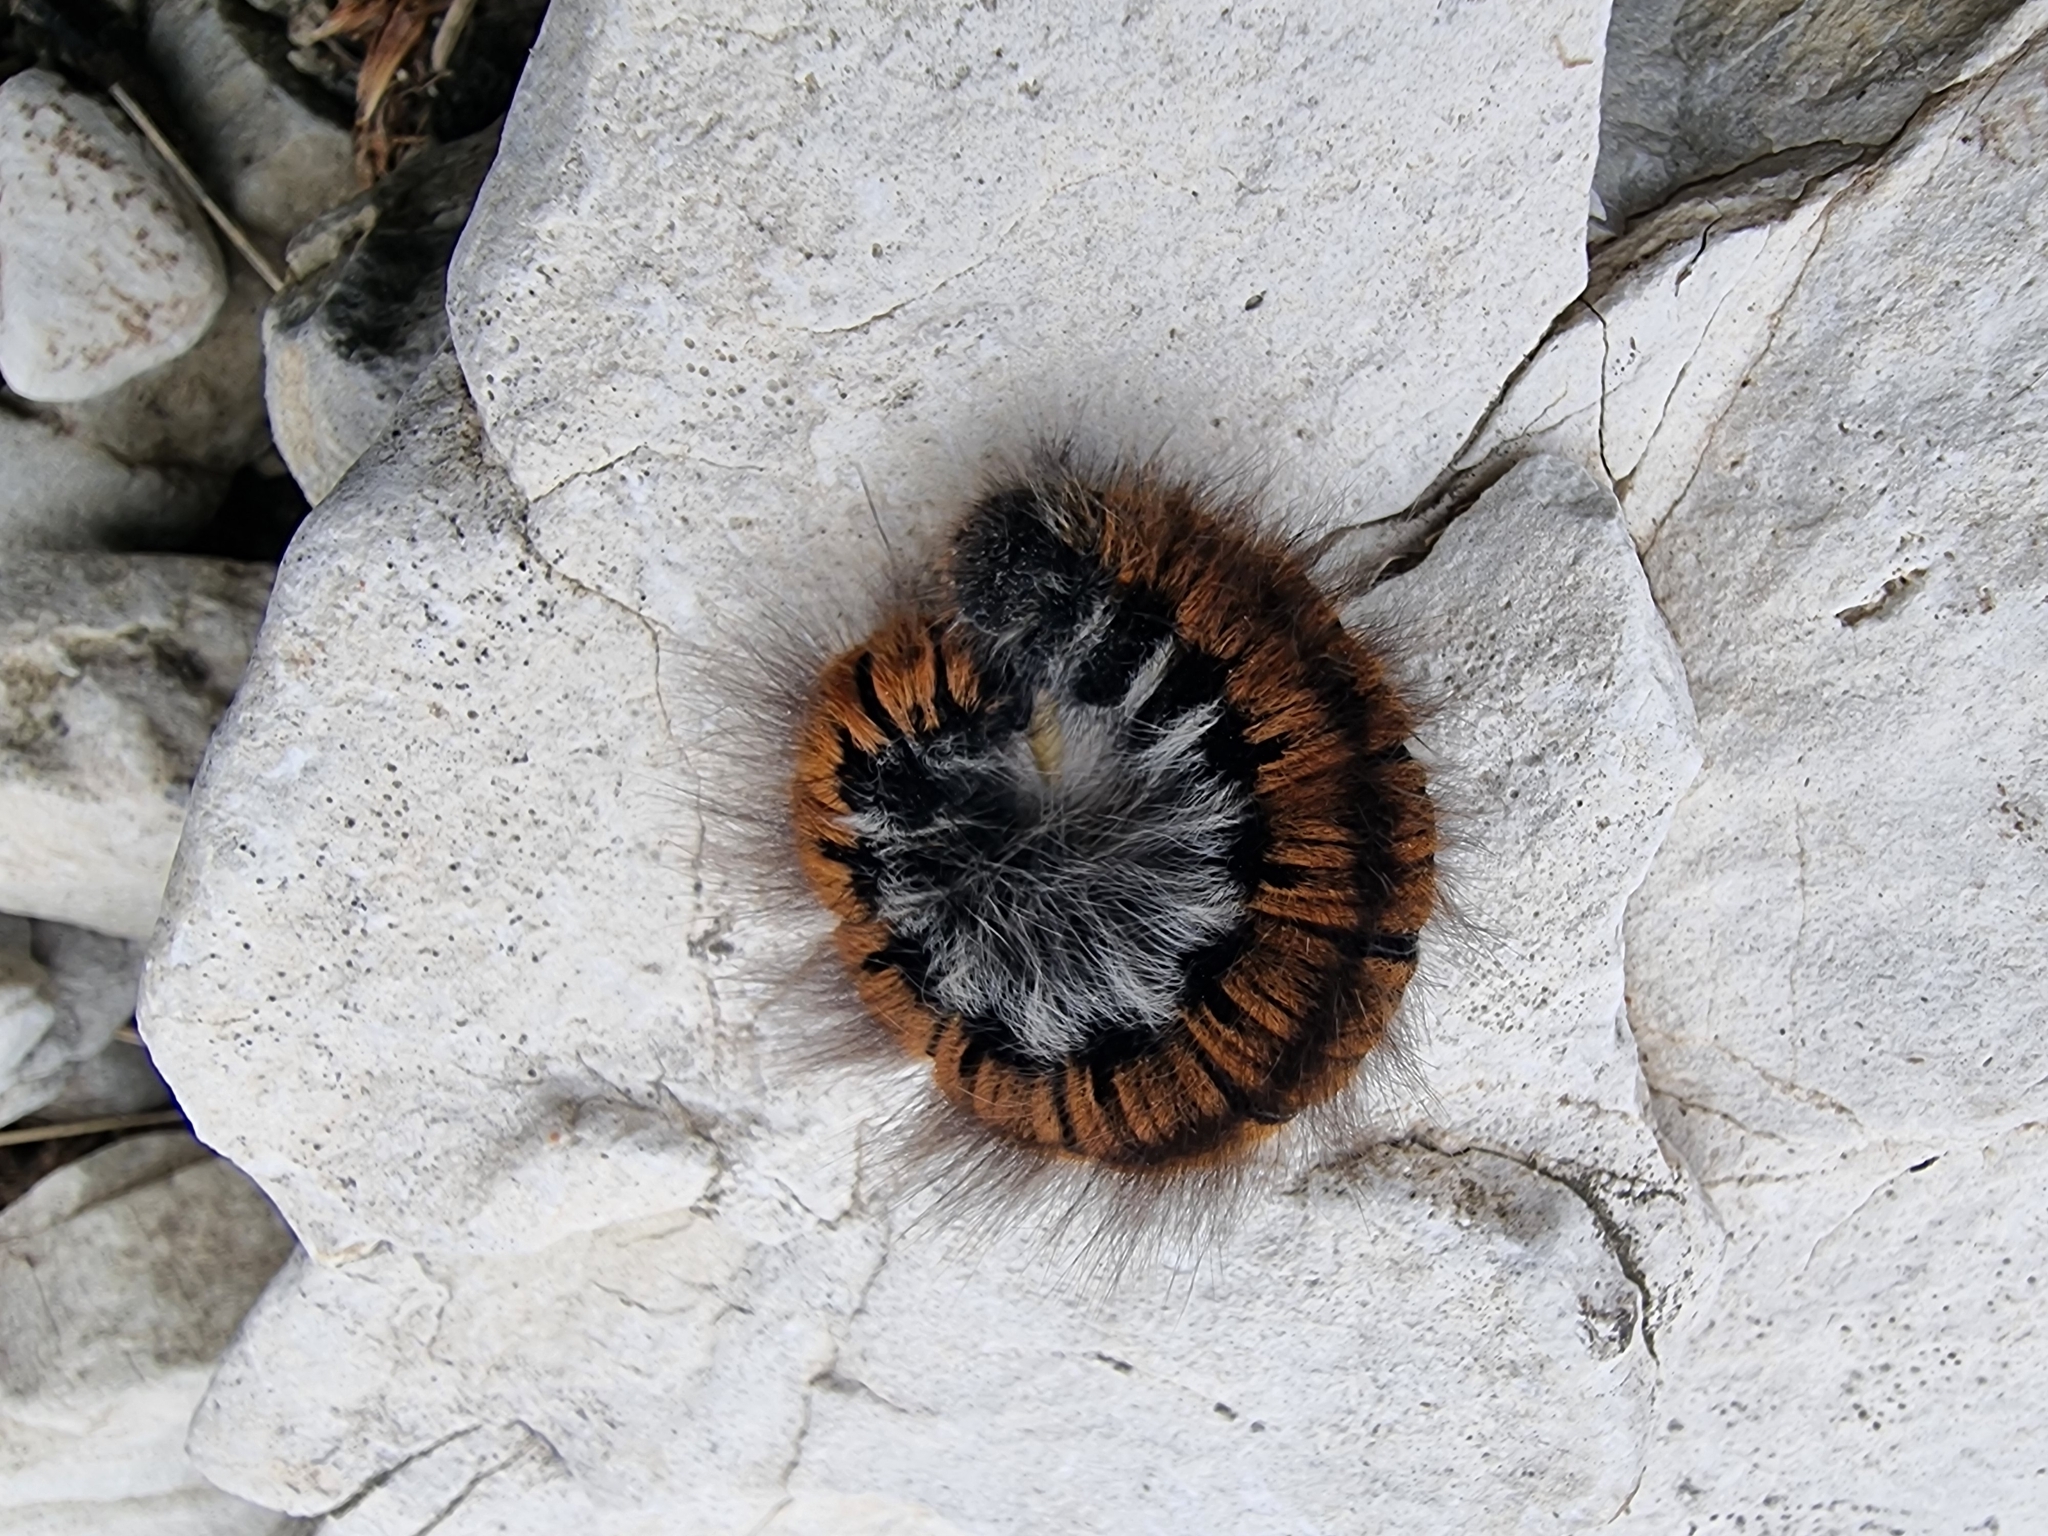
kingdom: Animalia
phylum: Arthropoda
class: Insecta
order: Lepidoptera
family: Lasiocampidae
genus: Macrothylacia
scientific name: Macrothylacia rubi
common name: Fox moth
